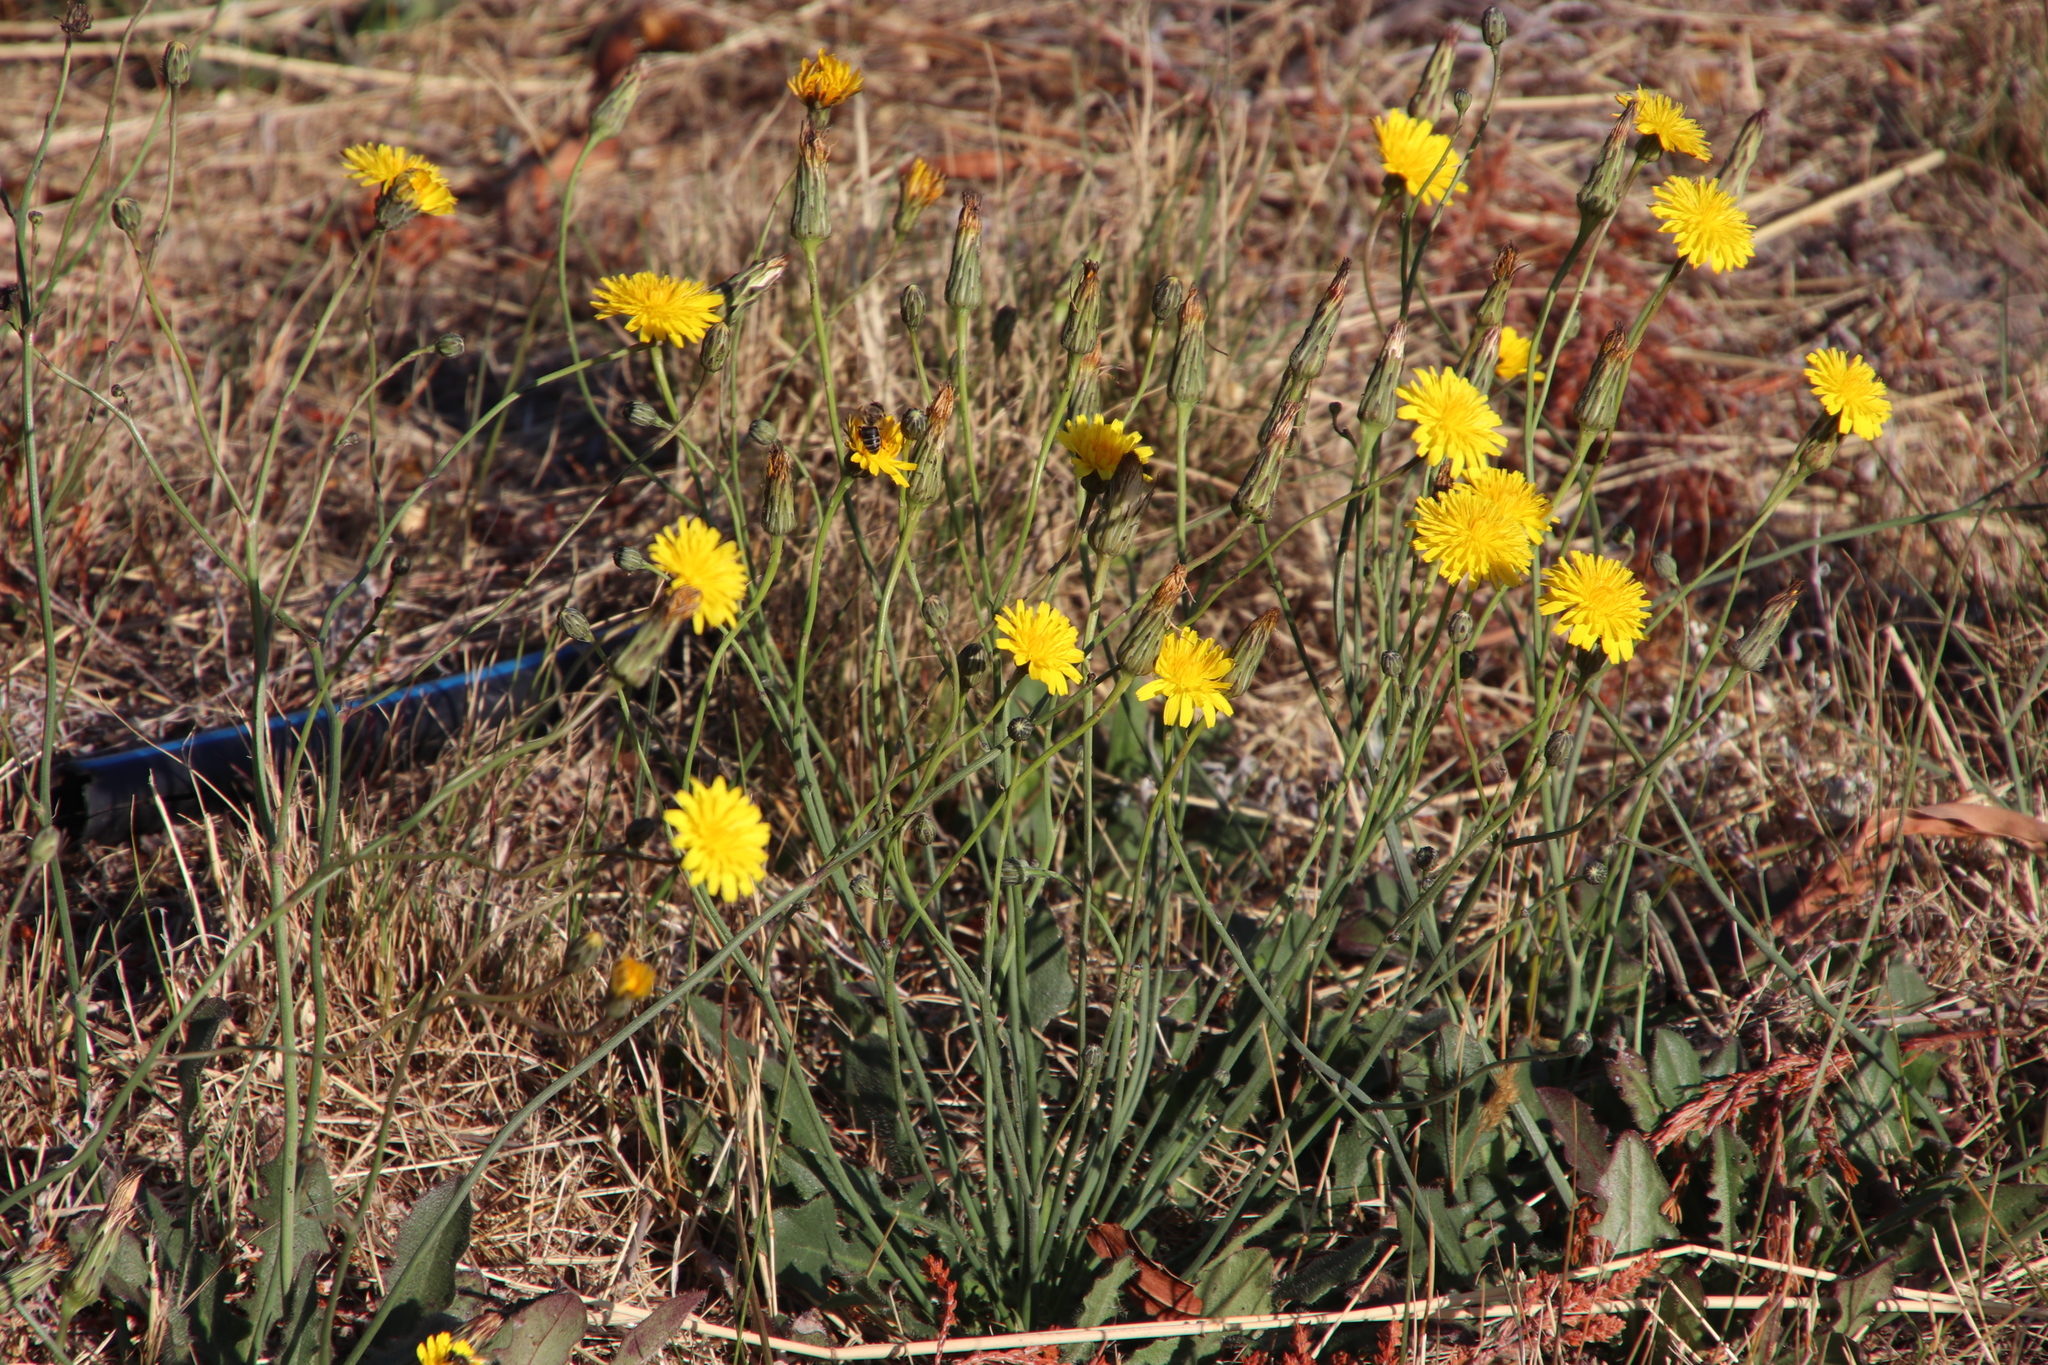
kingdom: Plantae
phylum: Tracheophyta
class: Magnoliopsida
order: Asterales
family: Asteraceae
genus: Hypochaeris
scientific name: Hypochaeris radicata
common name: Flatweed
